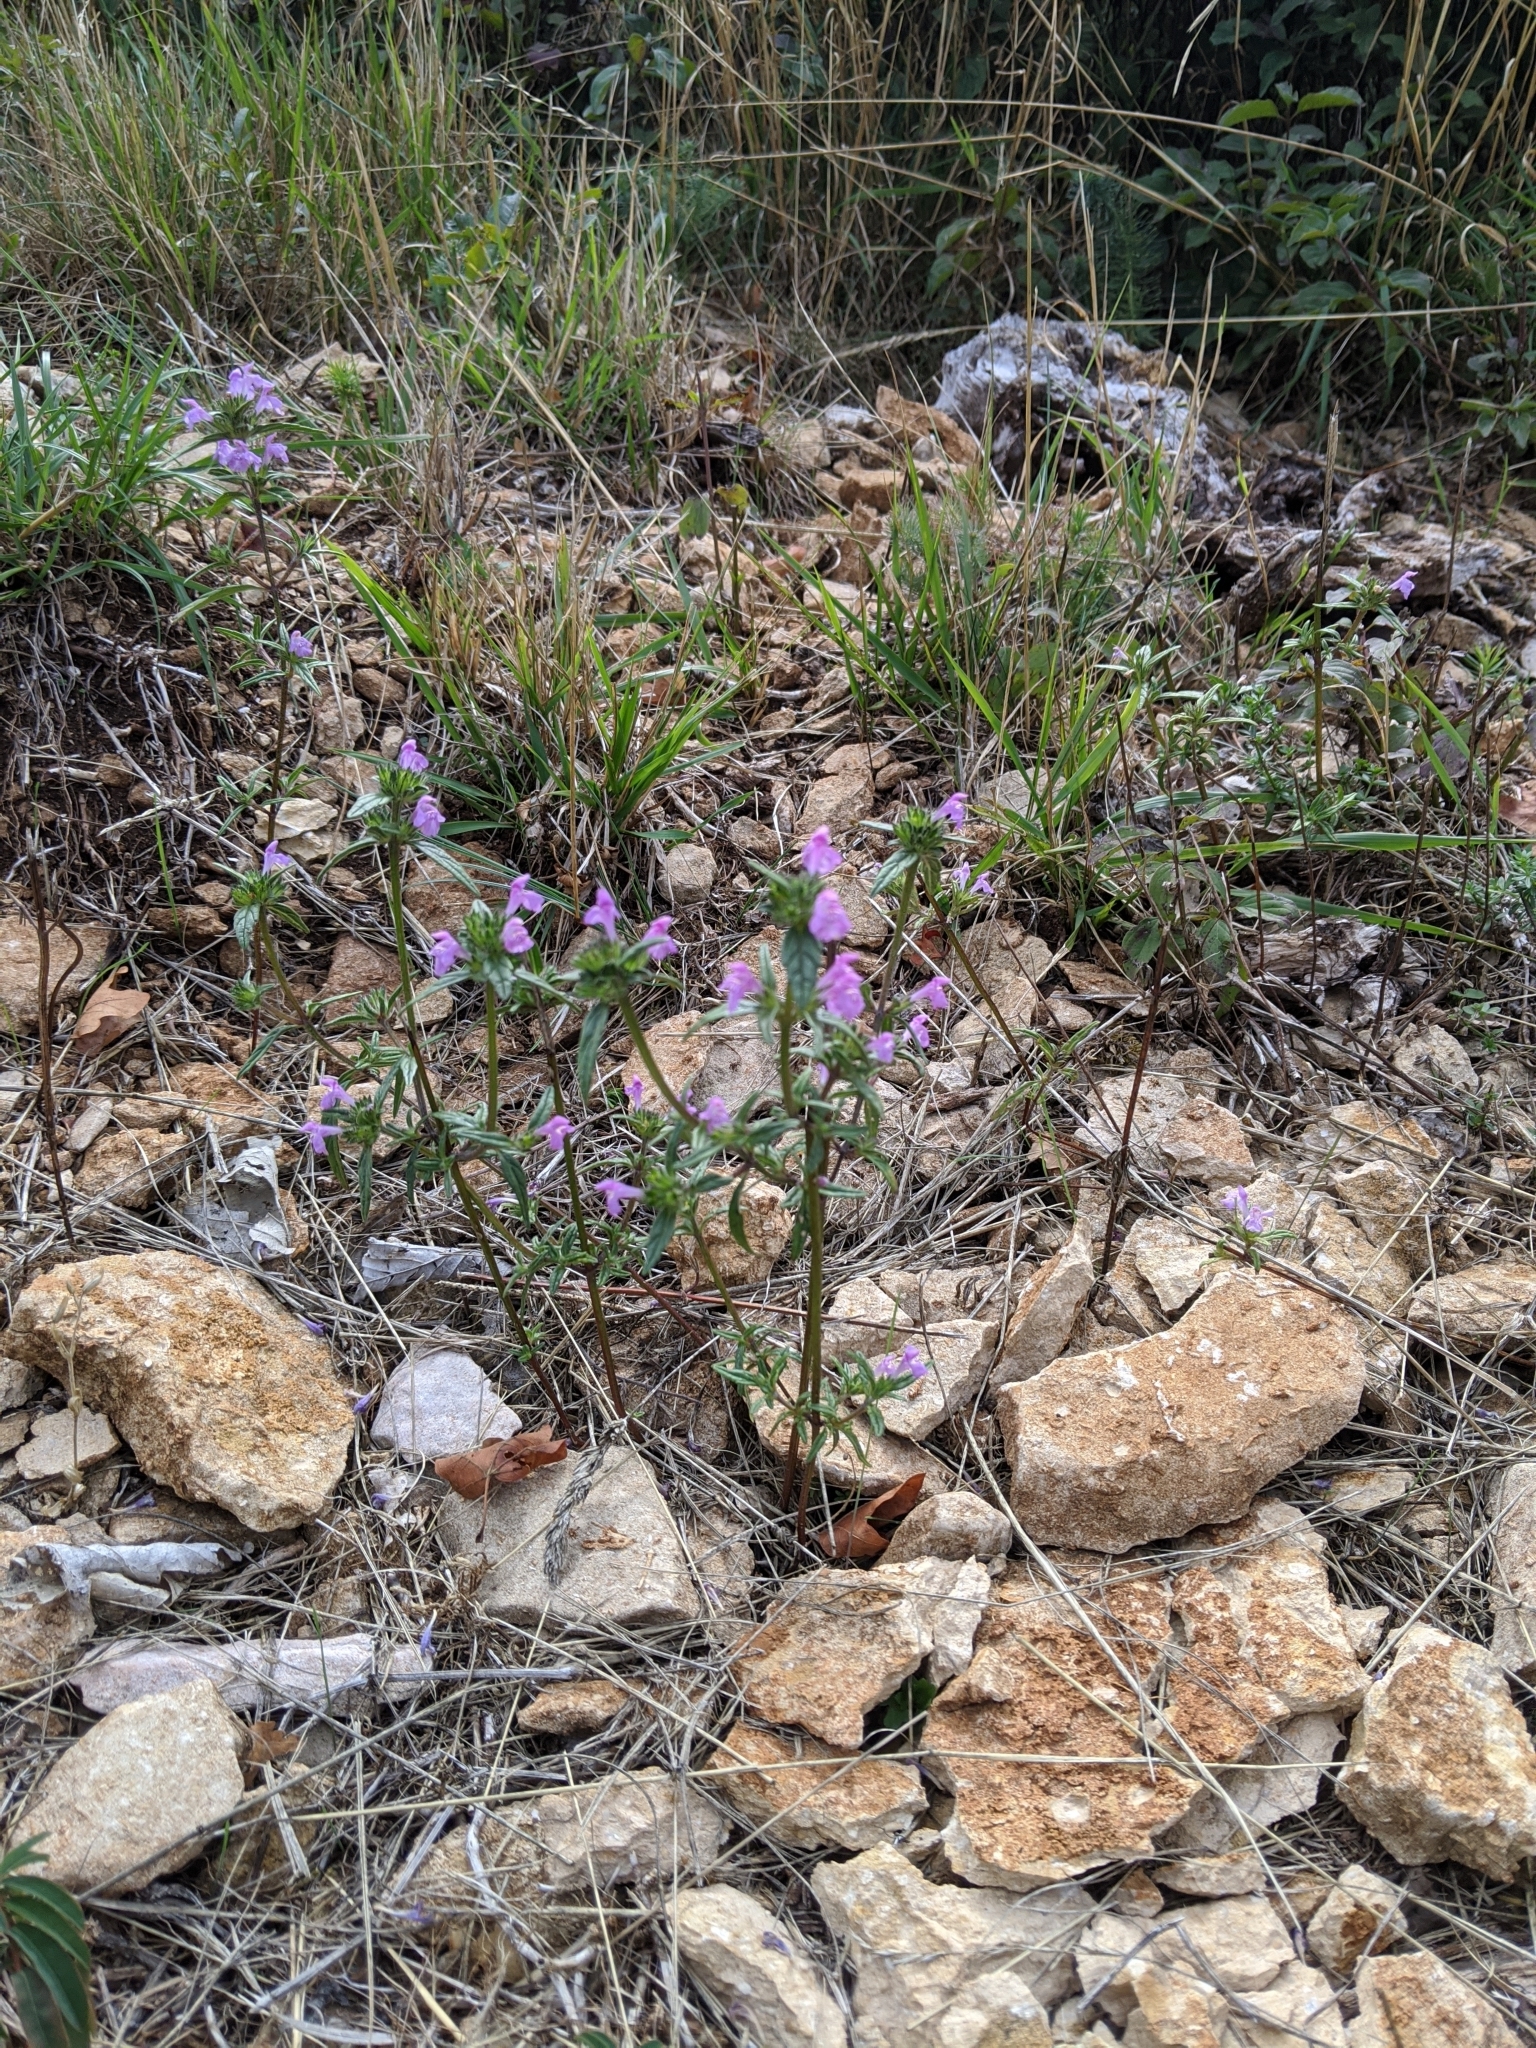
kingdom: Plantae
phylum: Tracheophyta
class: Magnoliopsida
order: Lamiales
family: Lamiaceae
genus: Galeopsis
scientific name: Galeopsis angustifolia
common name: Red hemp-nettle
